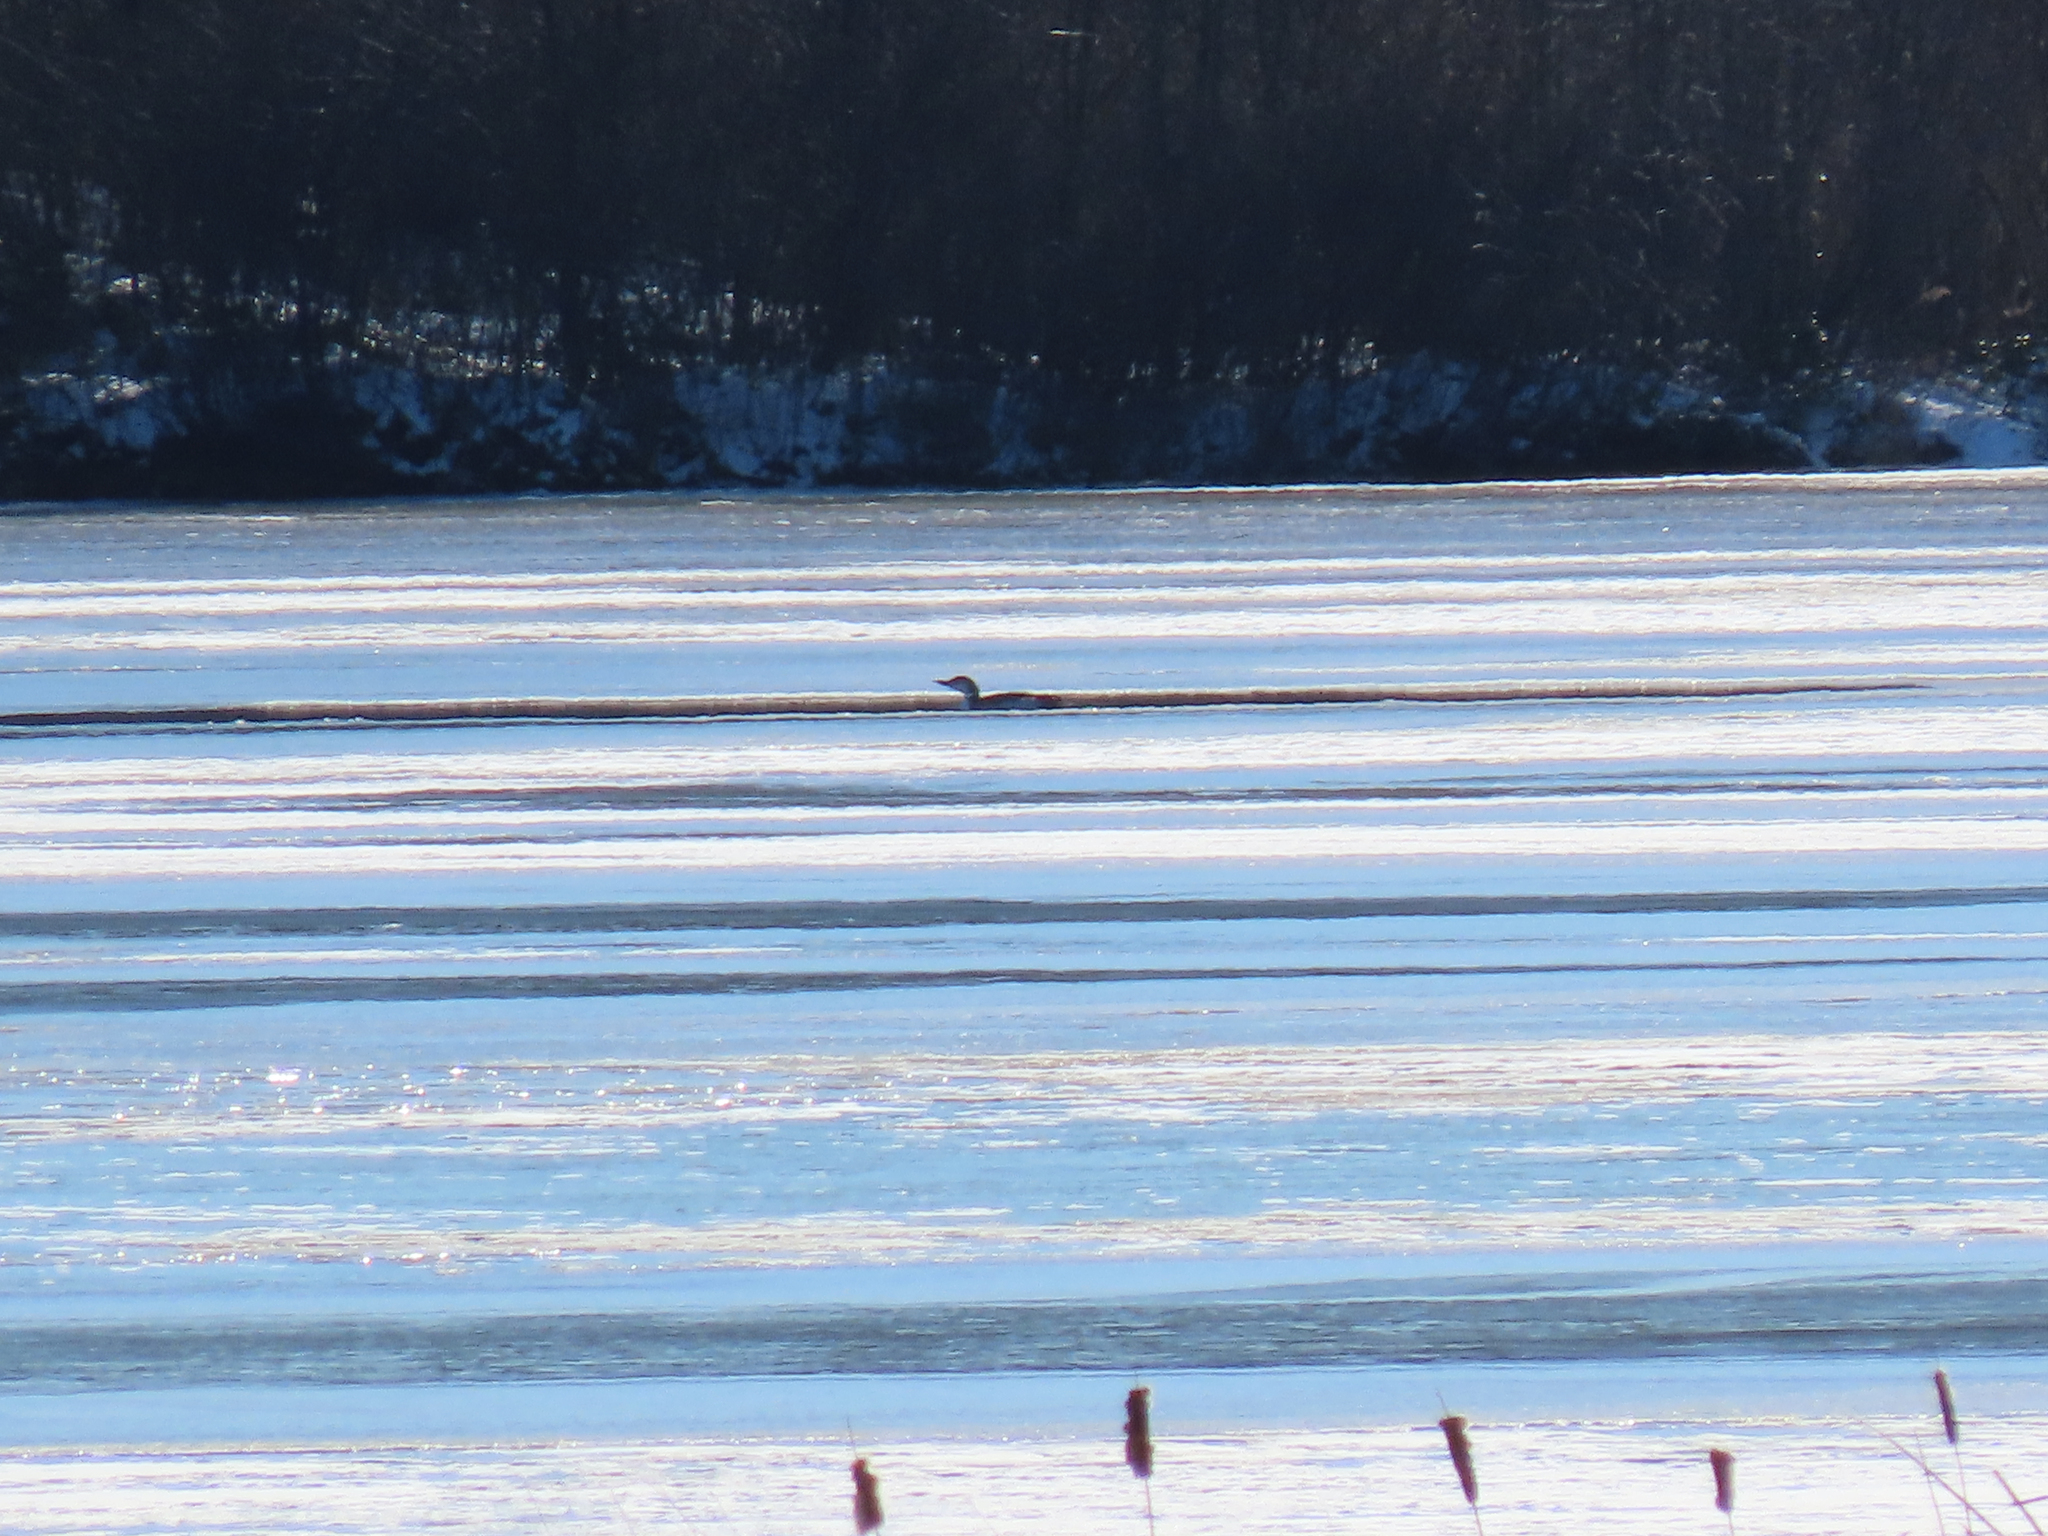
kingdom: Animalia
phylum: Chordata
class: Aves
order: Gaviiformes
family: Gaviidae
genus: Gavia
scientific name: Gavia immer
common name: Common loon
